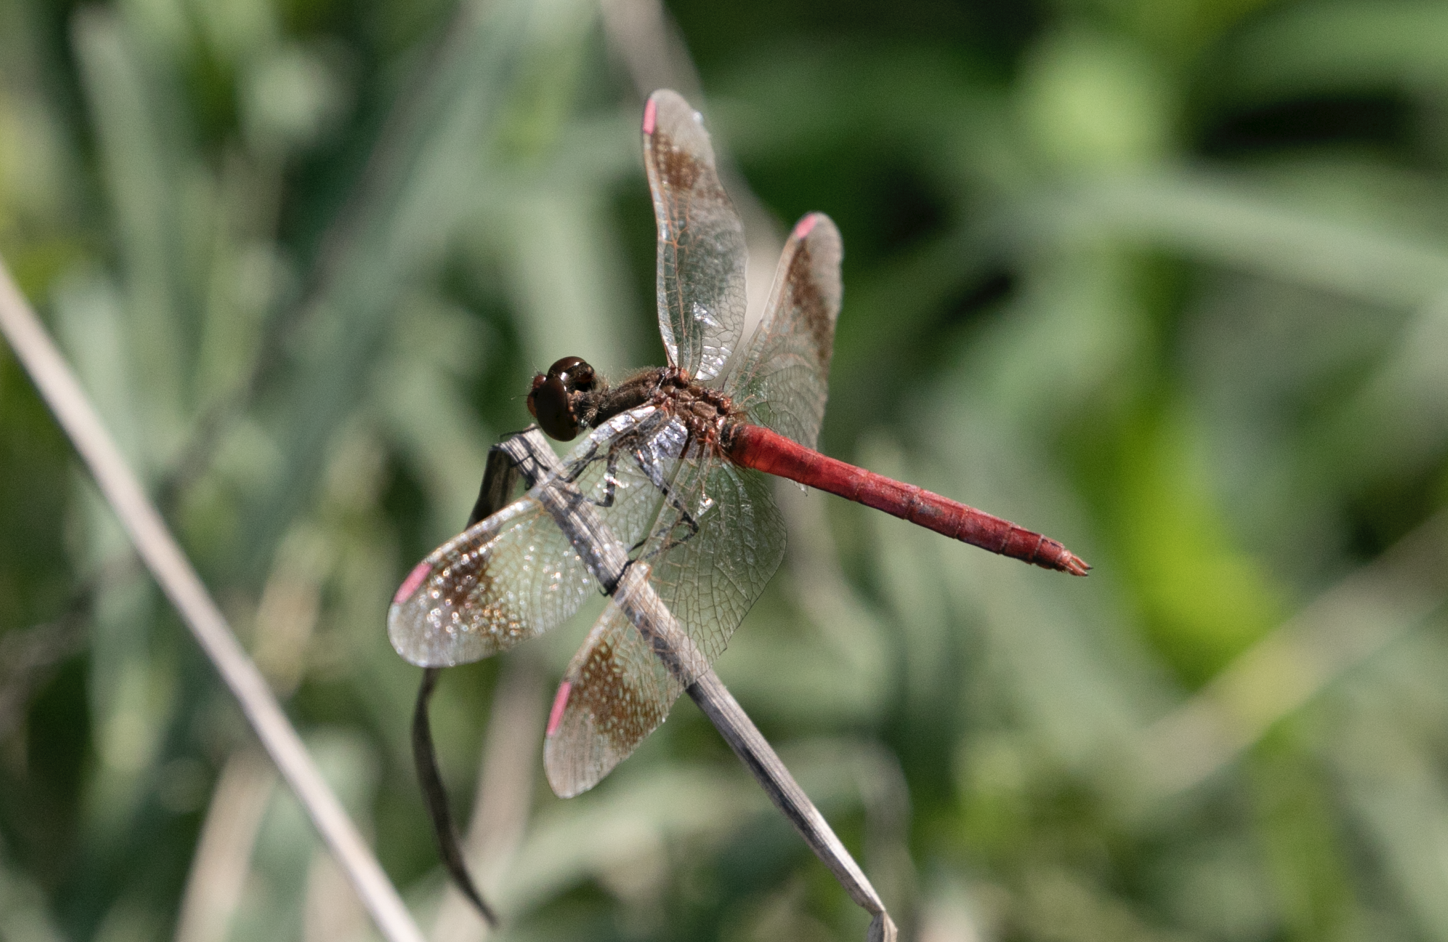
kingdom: Animalia
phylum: Arthropoda
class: Insecta
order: Odonata
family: Libellulidae
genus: Sympetrum
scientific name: Sympetrum pedemontanum
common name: Banded darter
